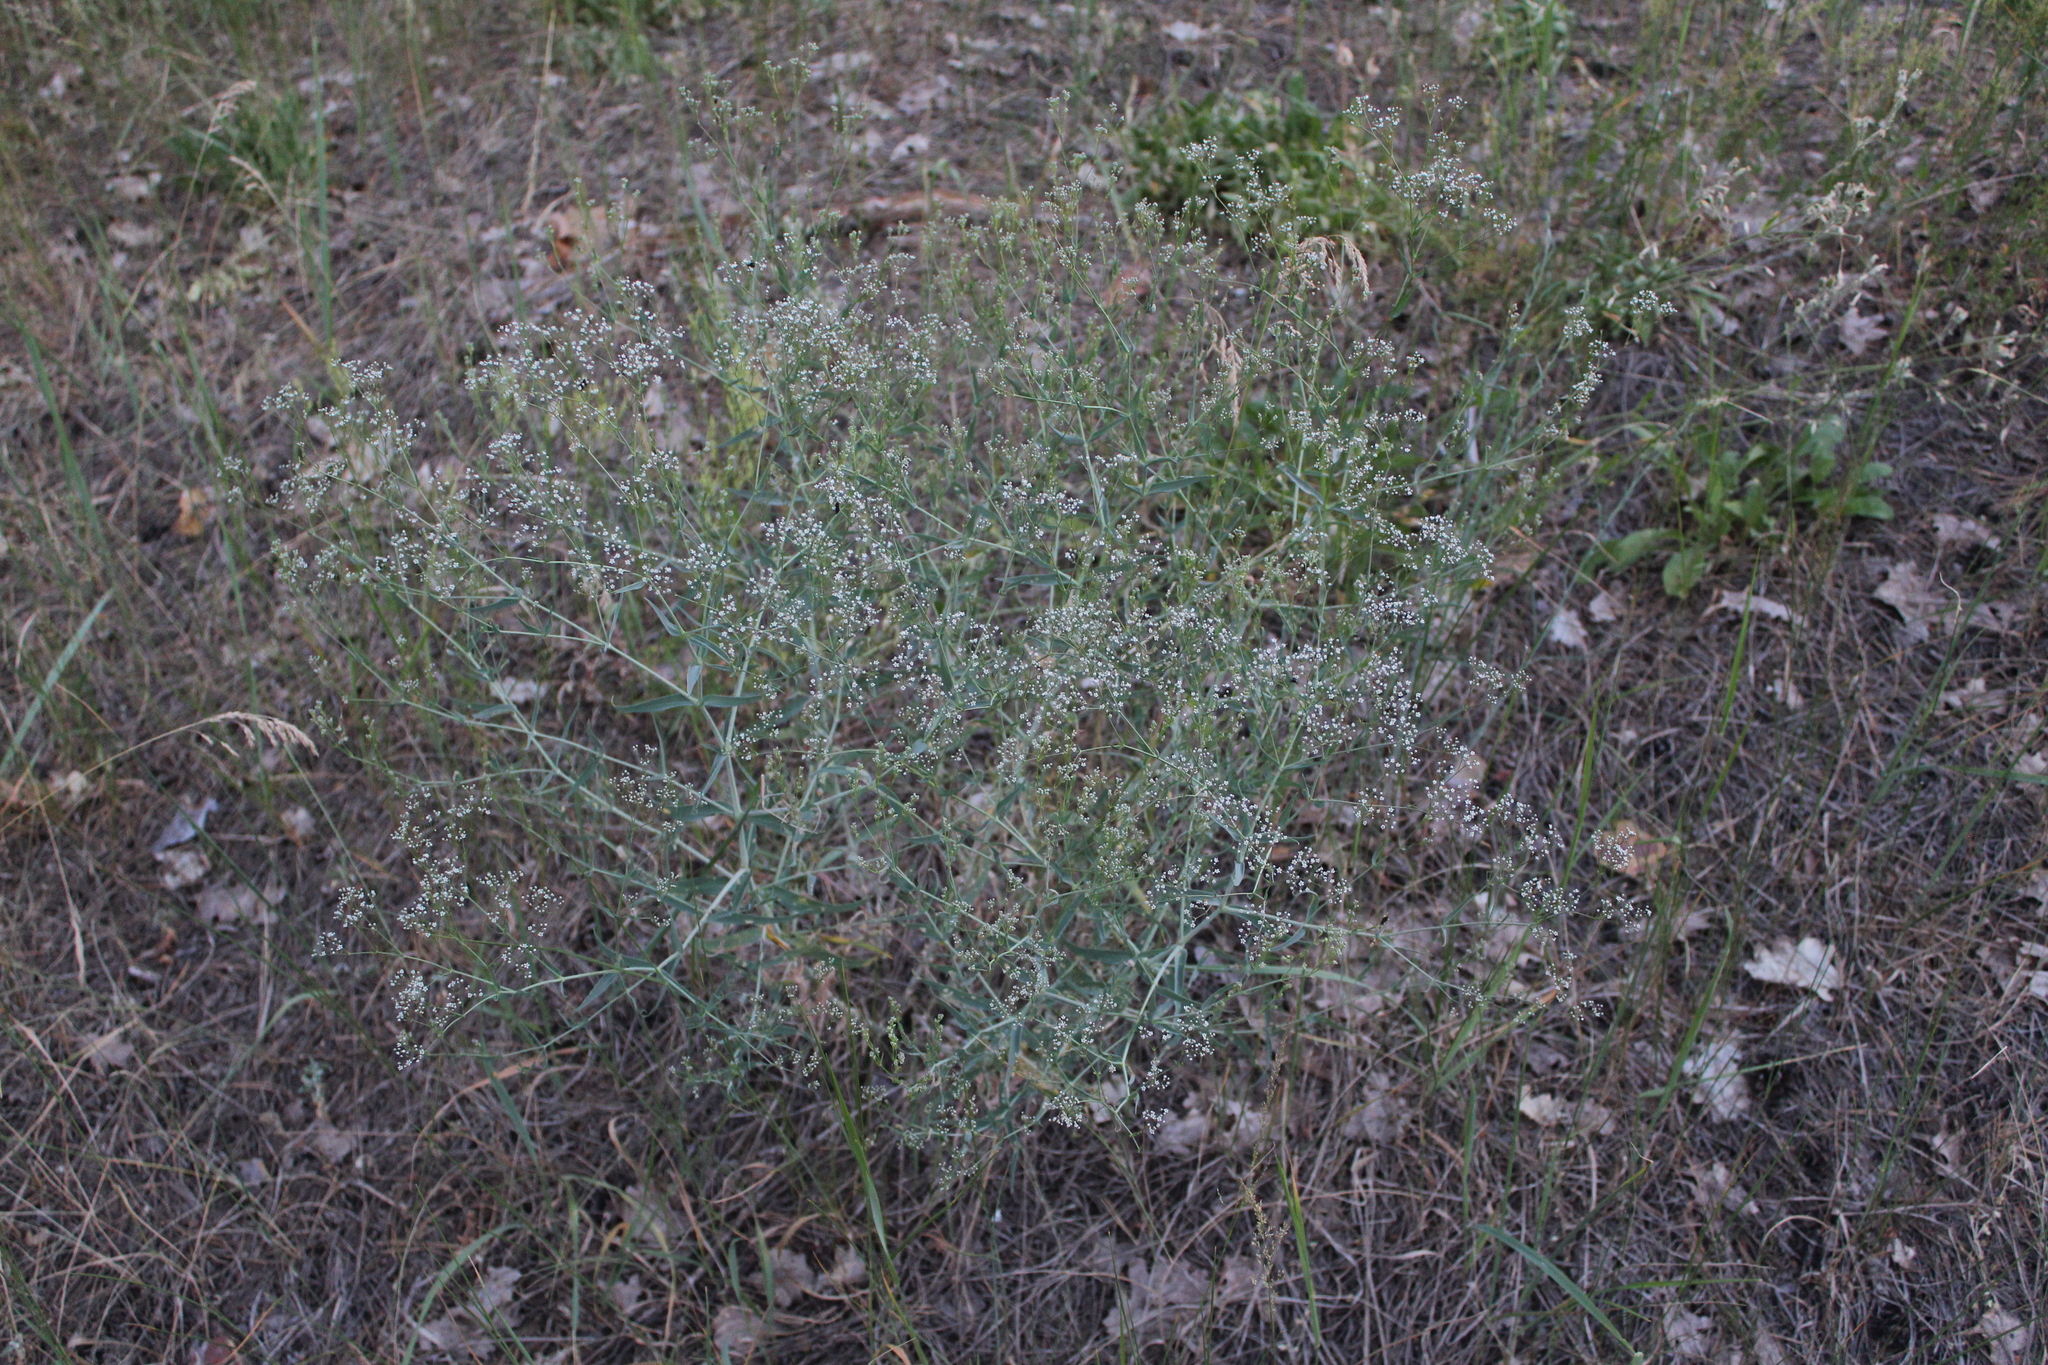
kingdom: Plantae
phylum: Tracheophyta
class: Magnoliopsida
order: Caryophyllales
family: Caryophyllaceae
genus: Gypsophila
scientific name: Gypsophila paniculata
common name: Baby's-breath
